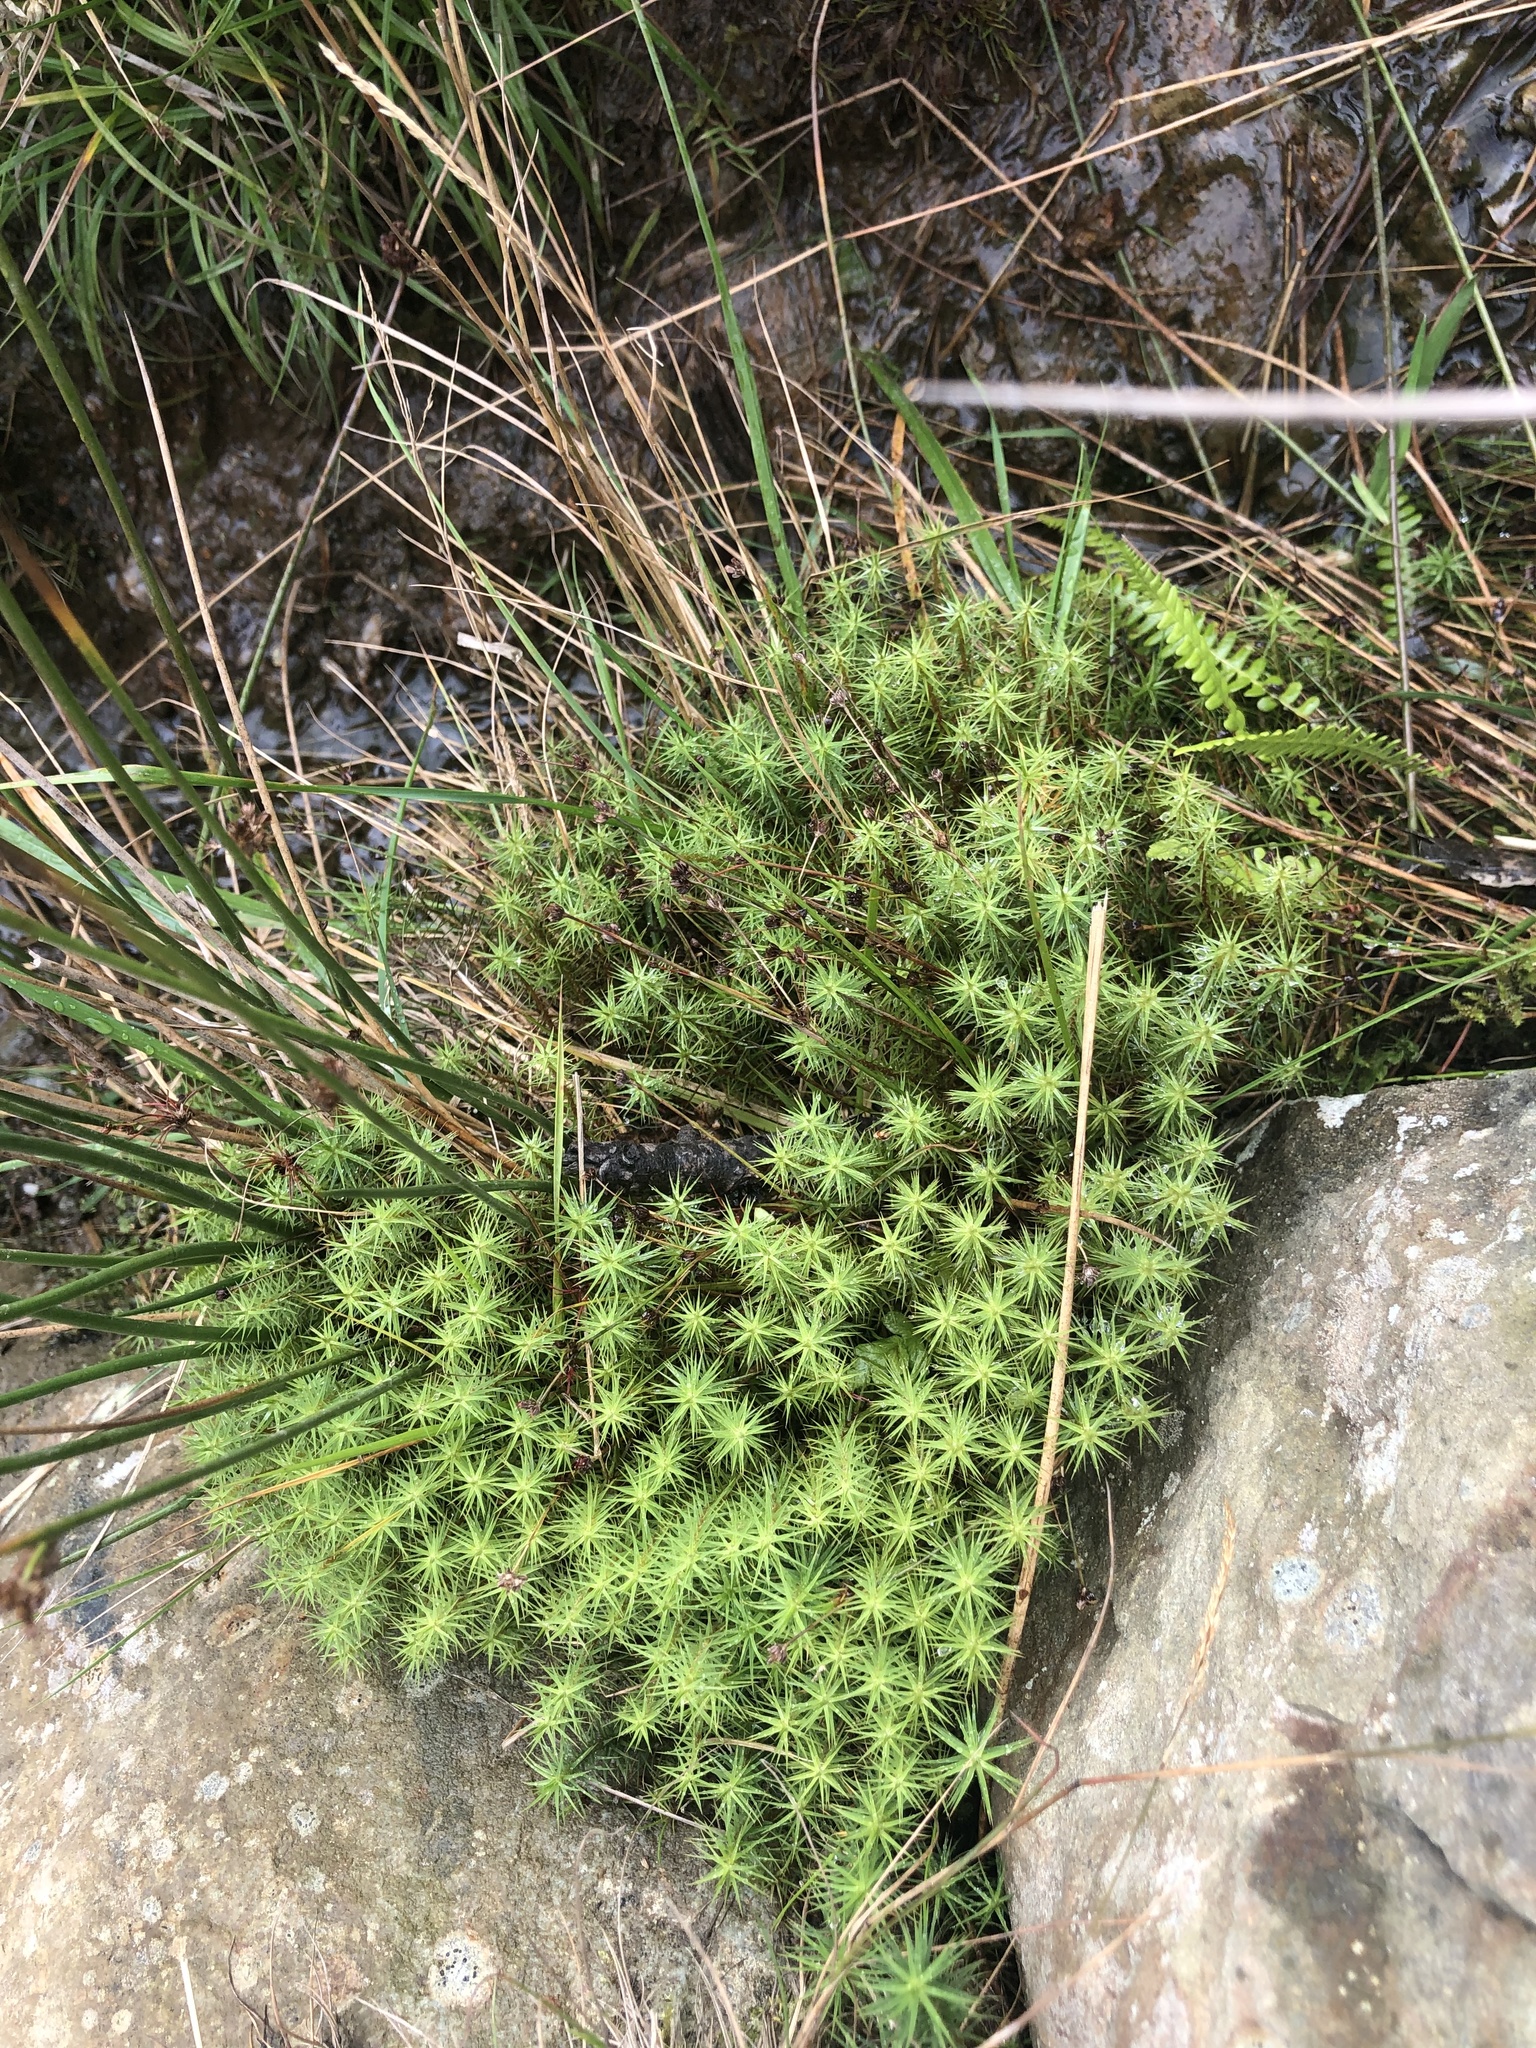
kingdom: Plantae
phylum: Bryophyta
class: Polytrichopsida
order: Polytrichales
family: Polytrichaceae
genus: Polytrichum
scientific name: Polytrichum commune
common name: Common haircap
